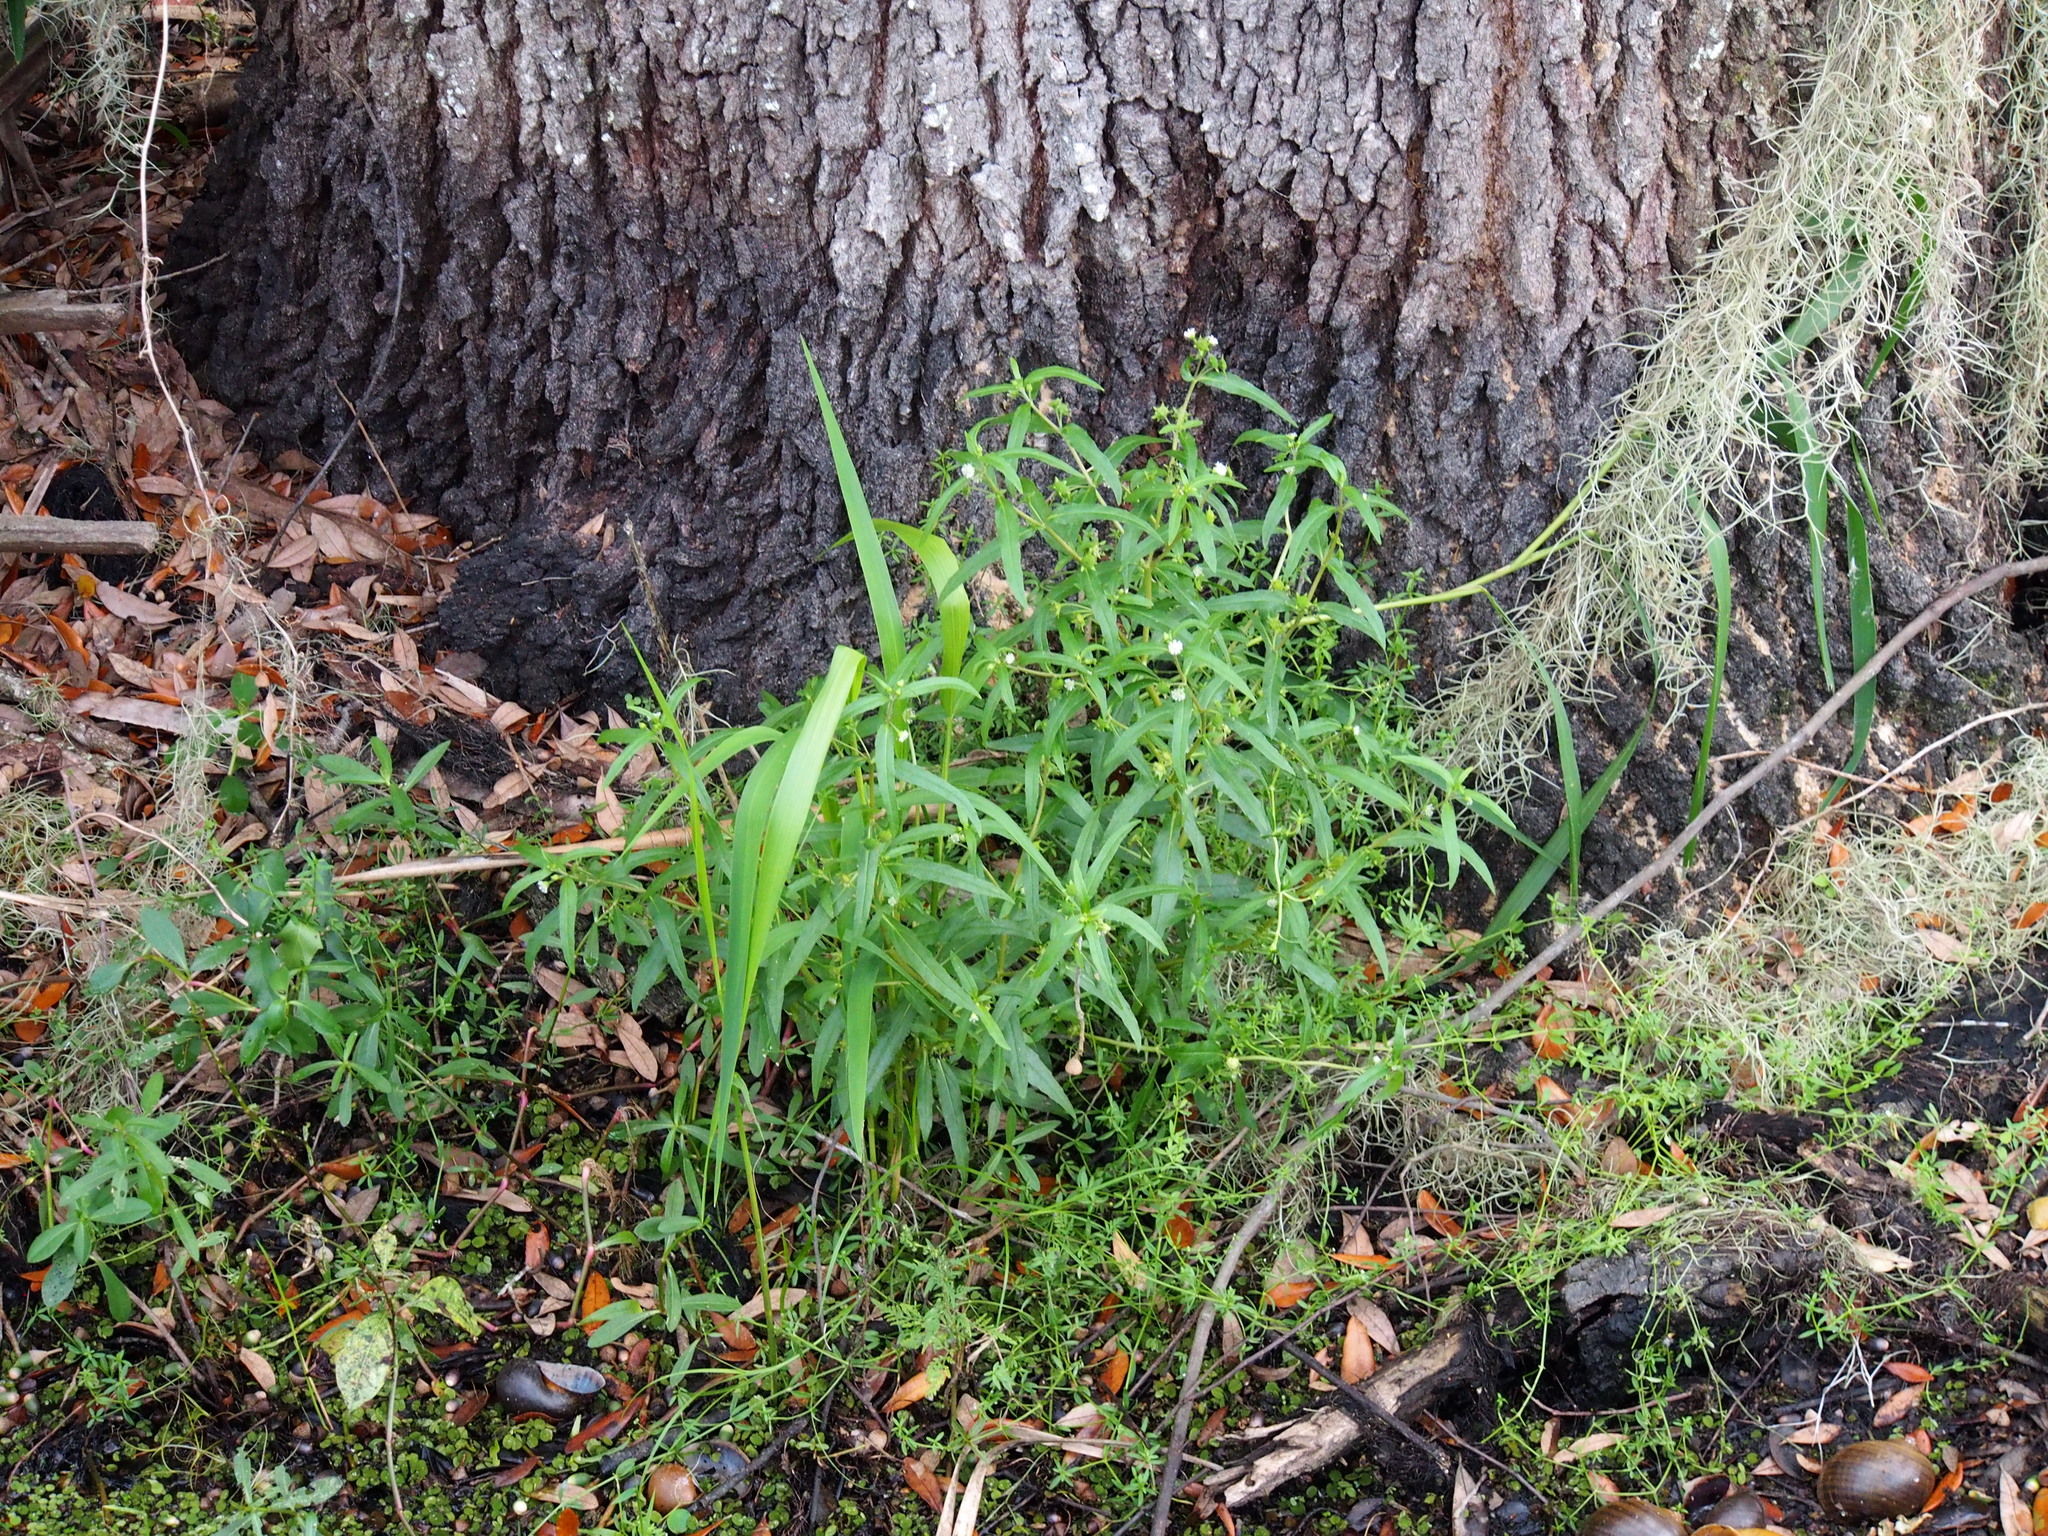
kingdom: Plantae
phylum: Tracheophyta
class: Magnoliopsida
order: Caryophyllales
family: Amaranthaceae
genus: Alternanthera
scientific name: Alternanthera philoxeroides
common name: Alligatorweed
